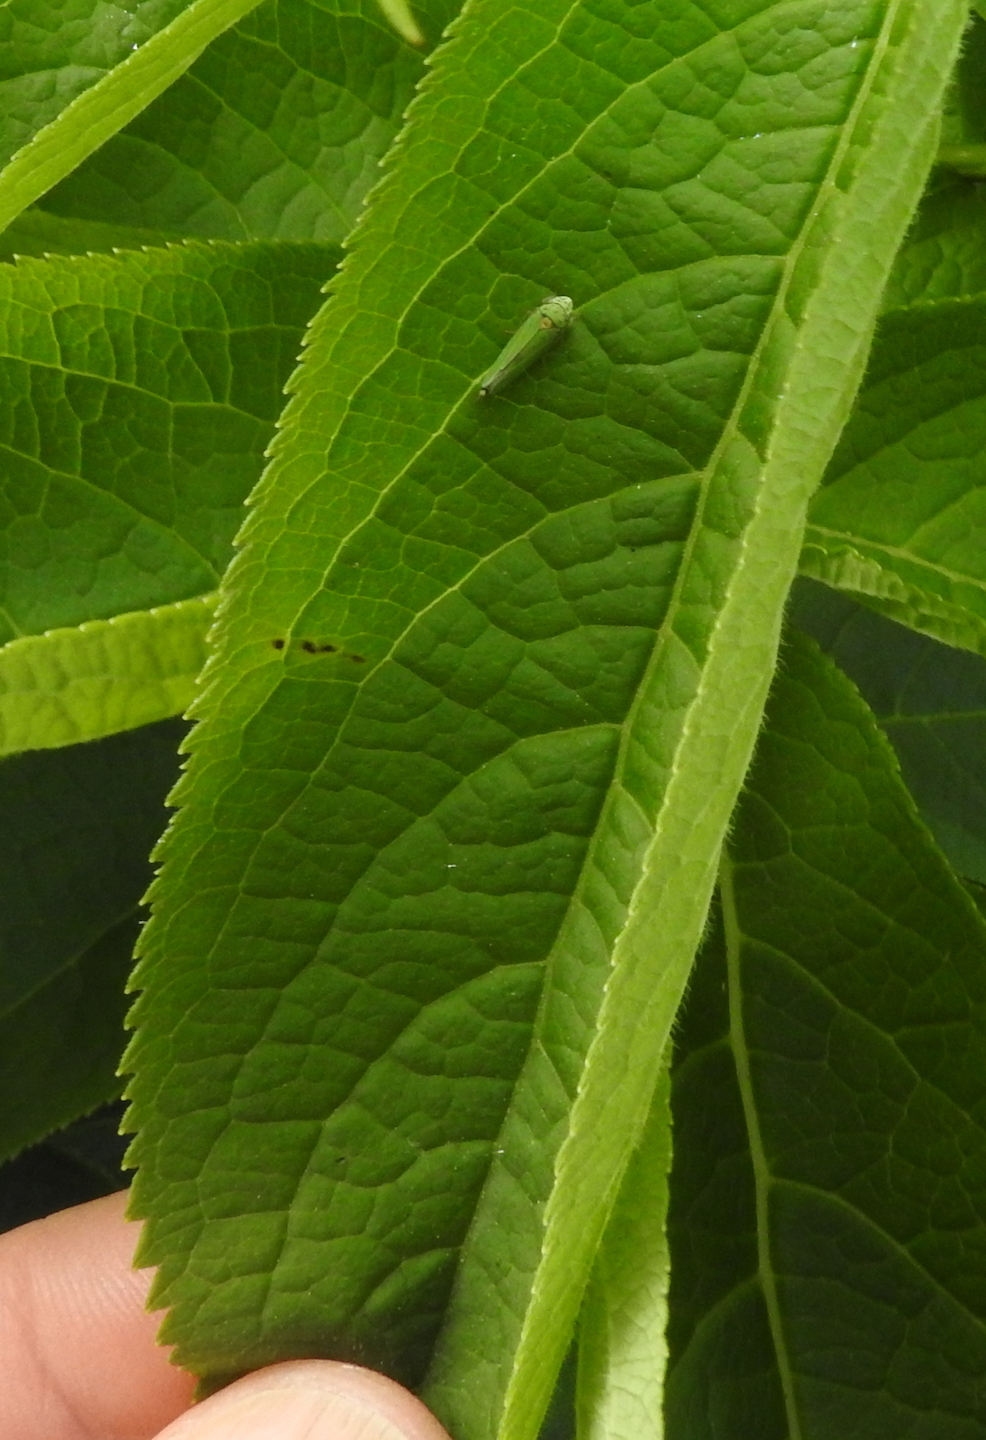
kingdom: Animalia
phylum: Arthropoda
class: Insecta
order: Hemiptera
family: Cicadellidae
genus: Graphocephala
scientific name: Graphocephala atropunctata
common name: Blue-green sharpshooter
